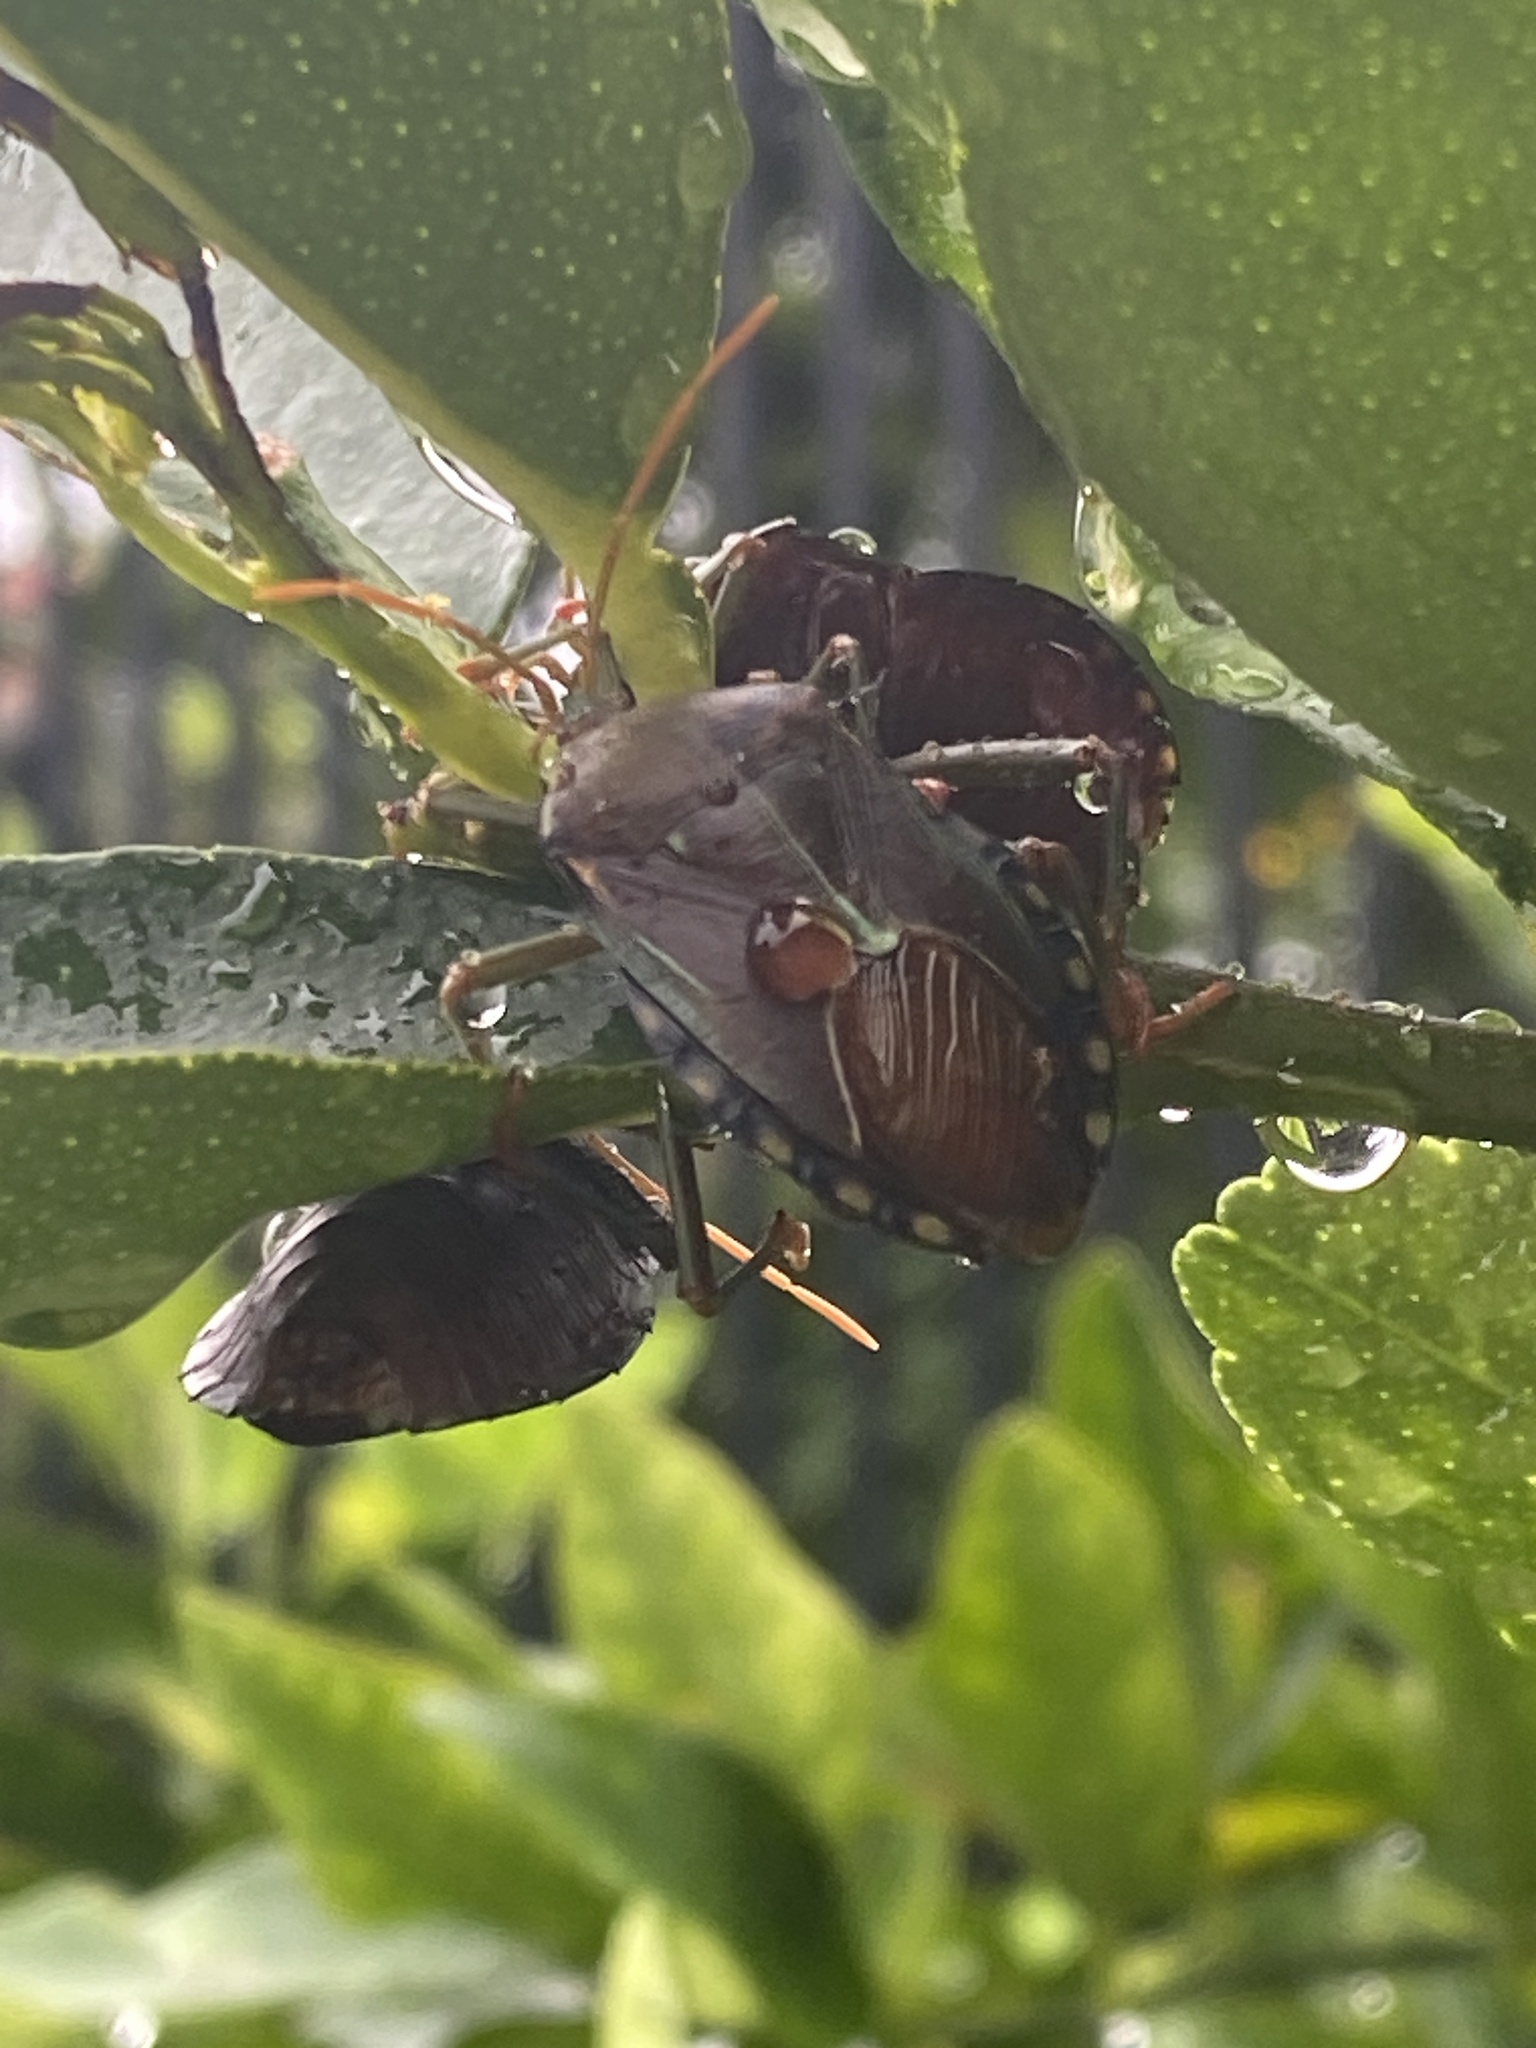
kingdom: Animalia
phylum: Arthropoda
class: Insecta
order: Hemiptera
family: Tessaratomidae
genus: Musgraveia
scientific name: Musgraveia sulciventris
